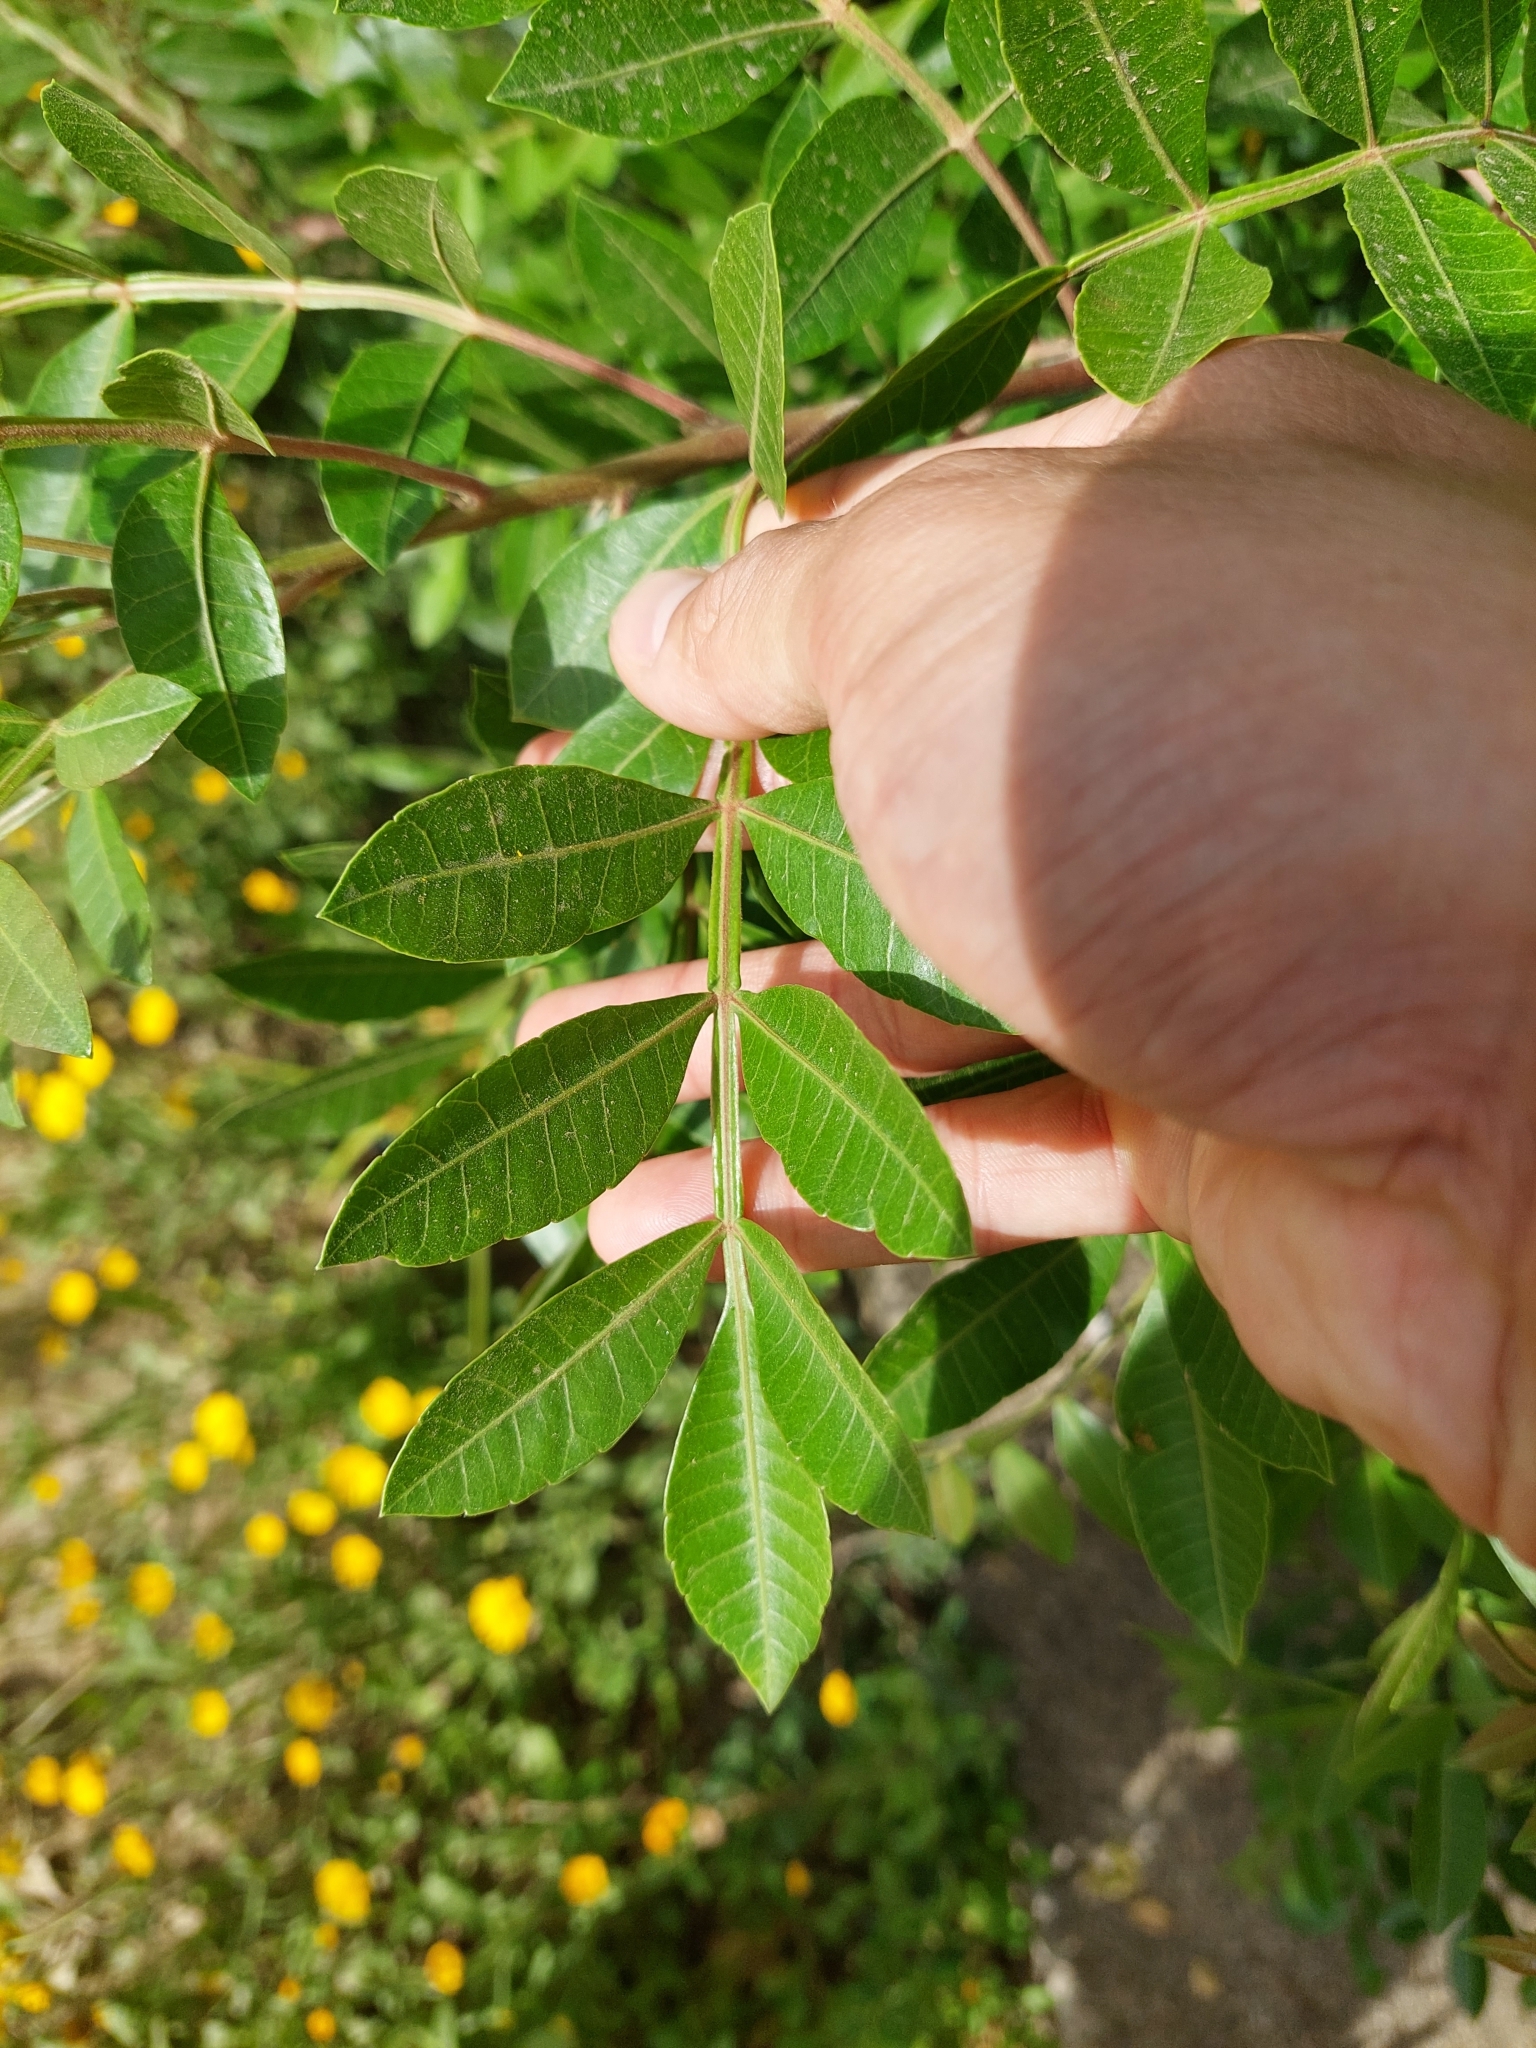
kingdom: Plantae
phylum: Tracheophyta
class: Magnoliopsida
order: Sapindales
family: Anacardiaceae
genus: Schinus
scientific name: Schinus terebinthifolia
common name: Brazilian peppertree
